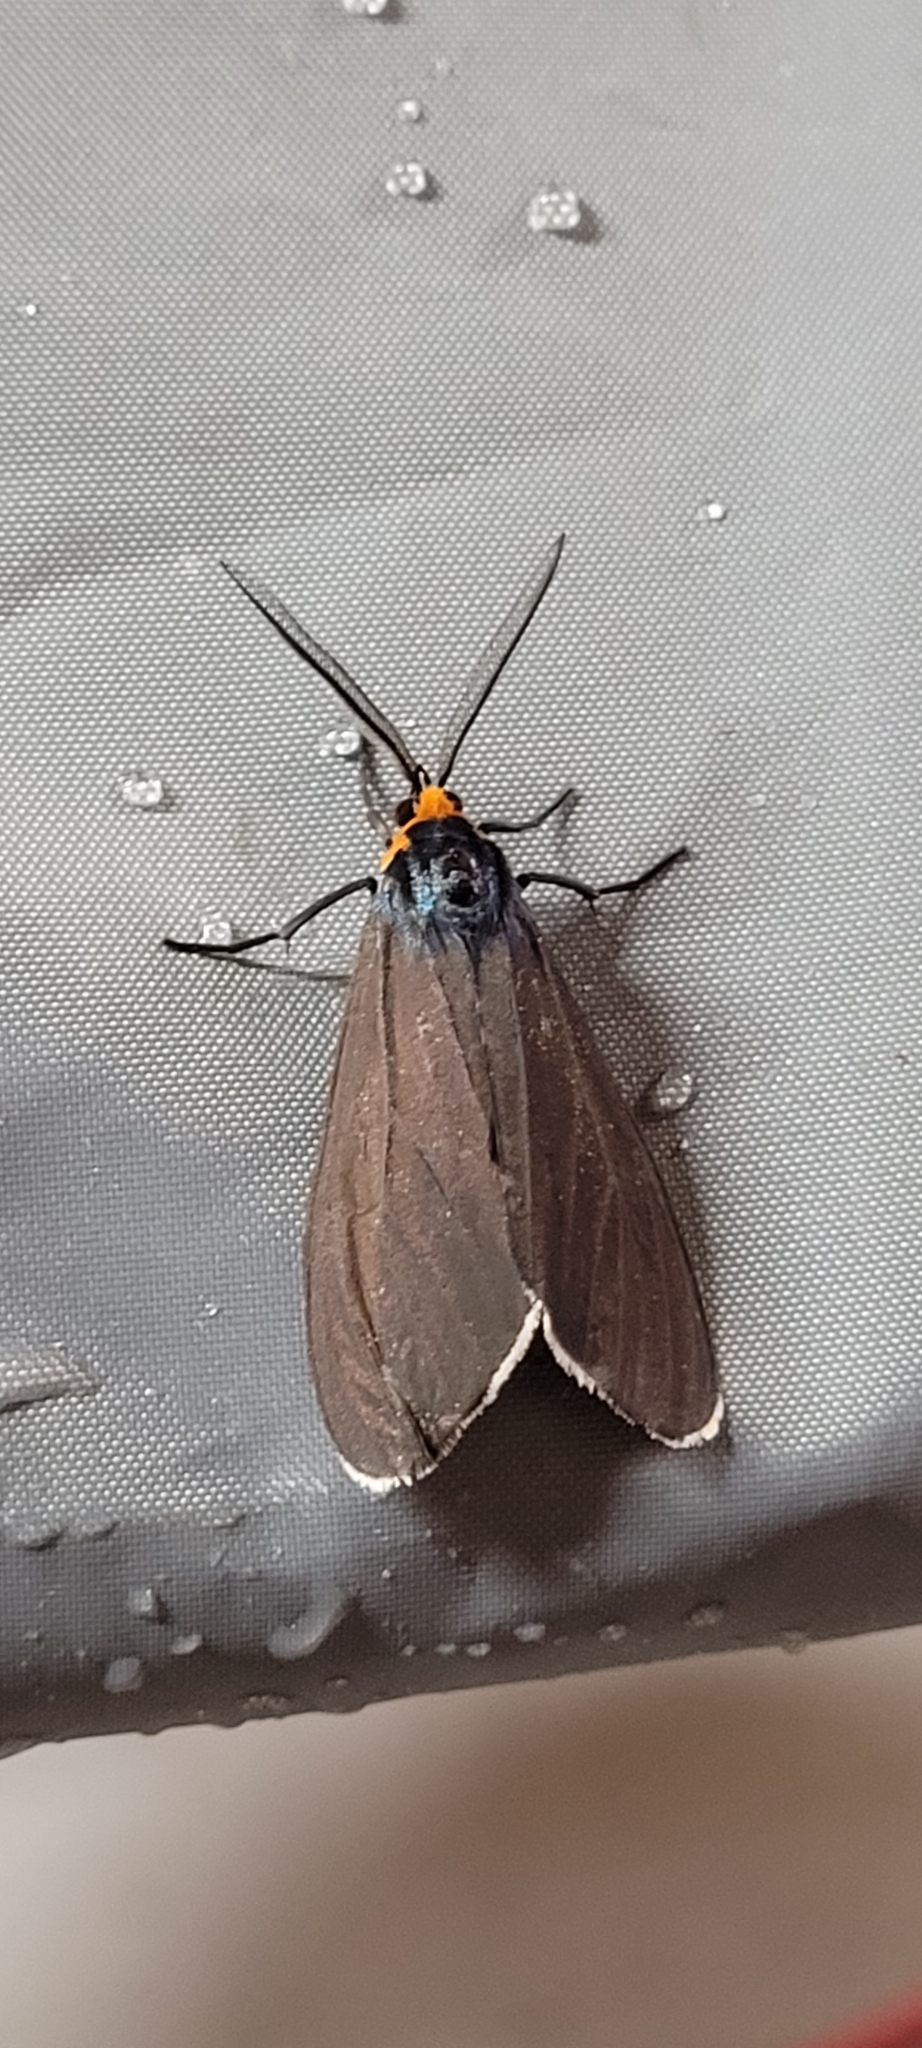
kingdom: Animalia
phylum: Arthropoda
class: Insecta
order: Lepidoptera
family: Erebidae
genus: Ctenucha
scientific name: Ctenucha virginica
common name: Virginia ctenucha moth
